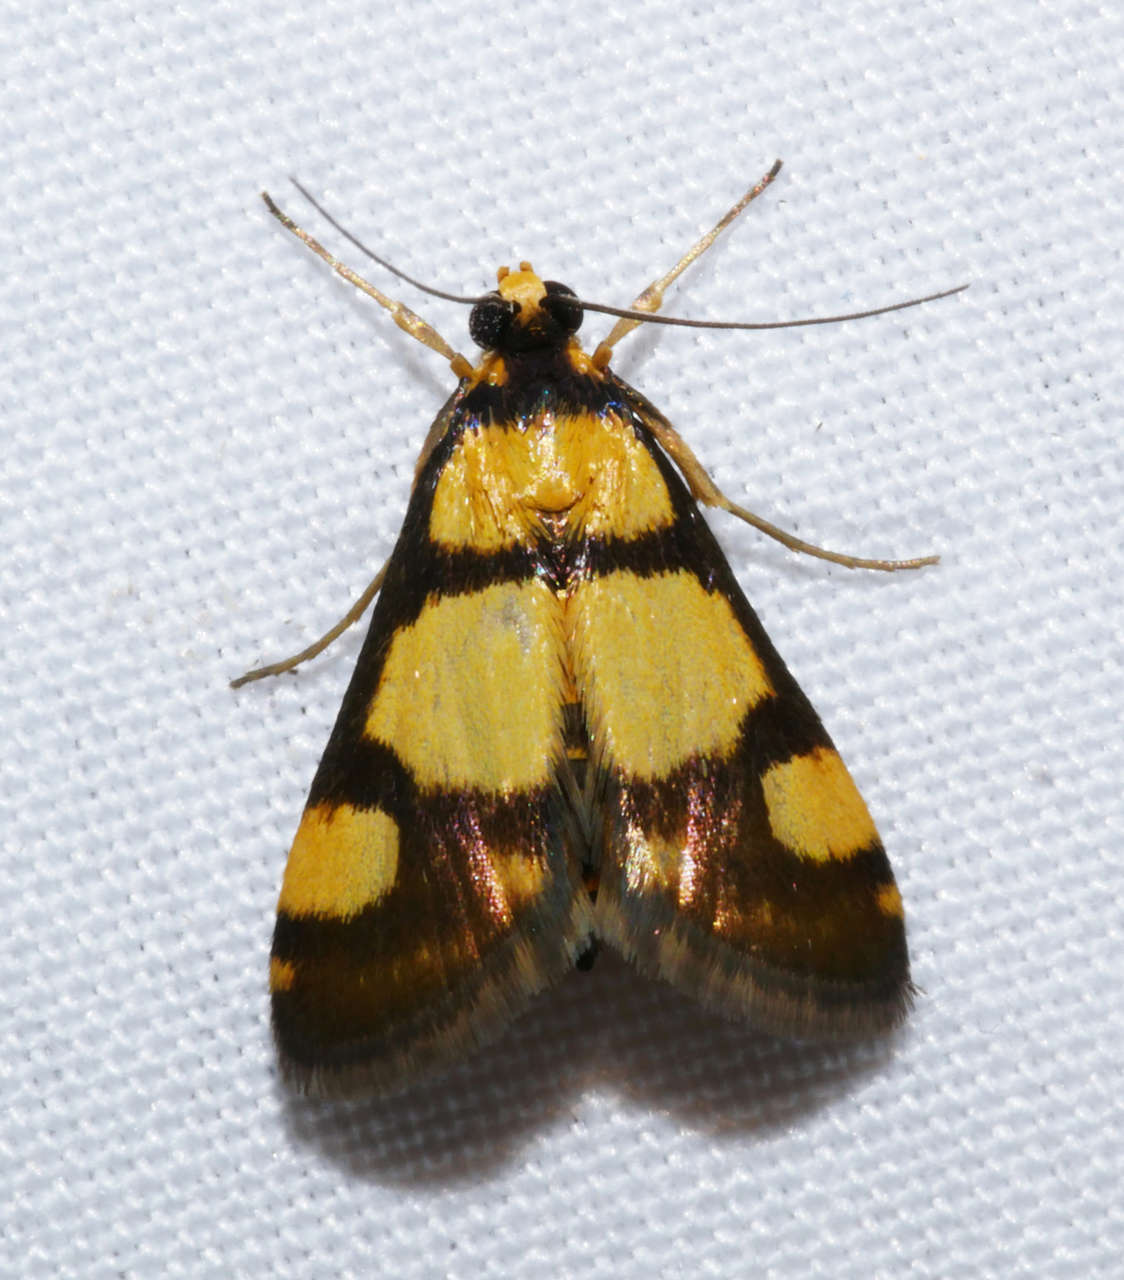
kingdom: Animalia
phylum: Arthropoda
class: Insecta
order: Lepidoptera
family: Crambidae
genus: Deuterarcha
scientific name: Deuterarcha xanthomela
